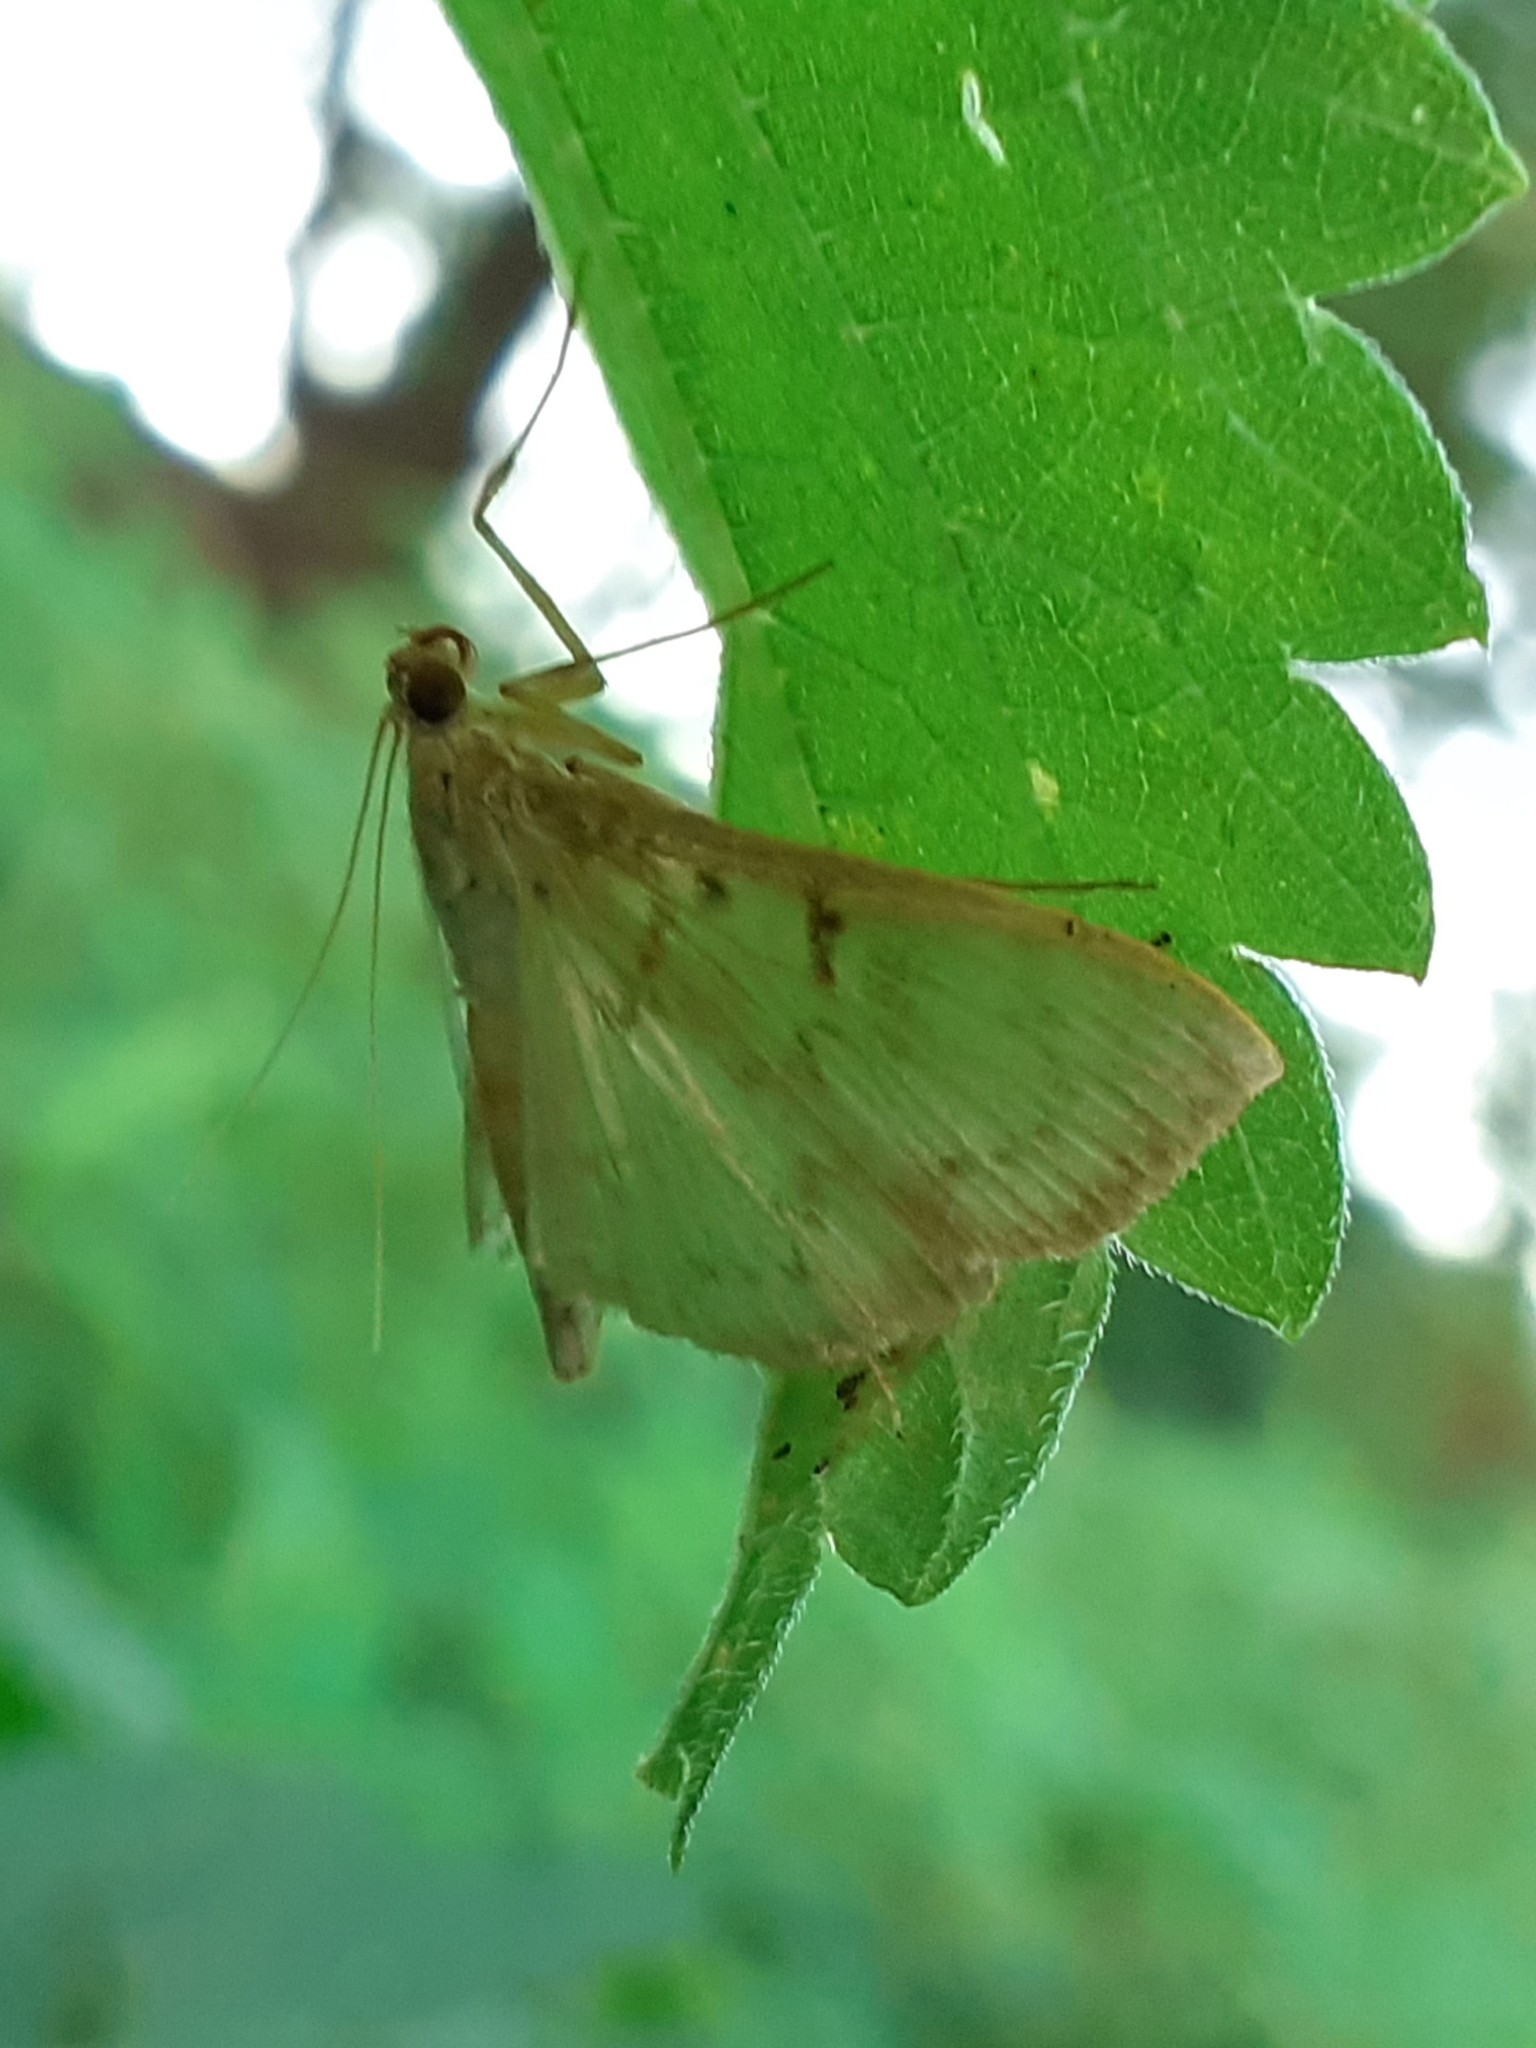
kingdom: Animalia
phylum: Arthropoda
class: Insecta
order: Lepidoptera
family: Crambidae
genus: Patania
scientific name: Patania ruralis
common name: Mother of pearl
